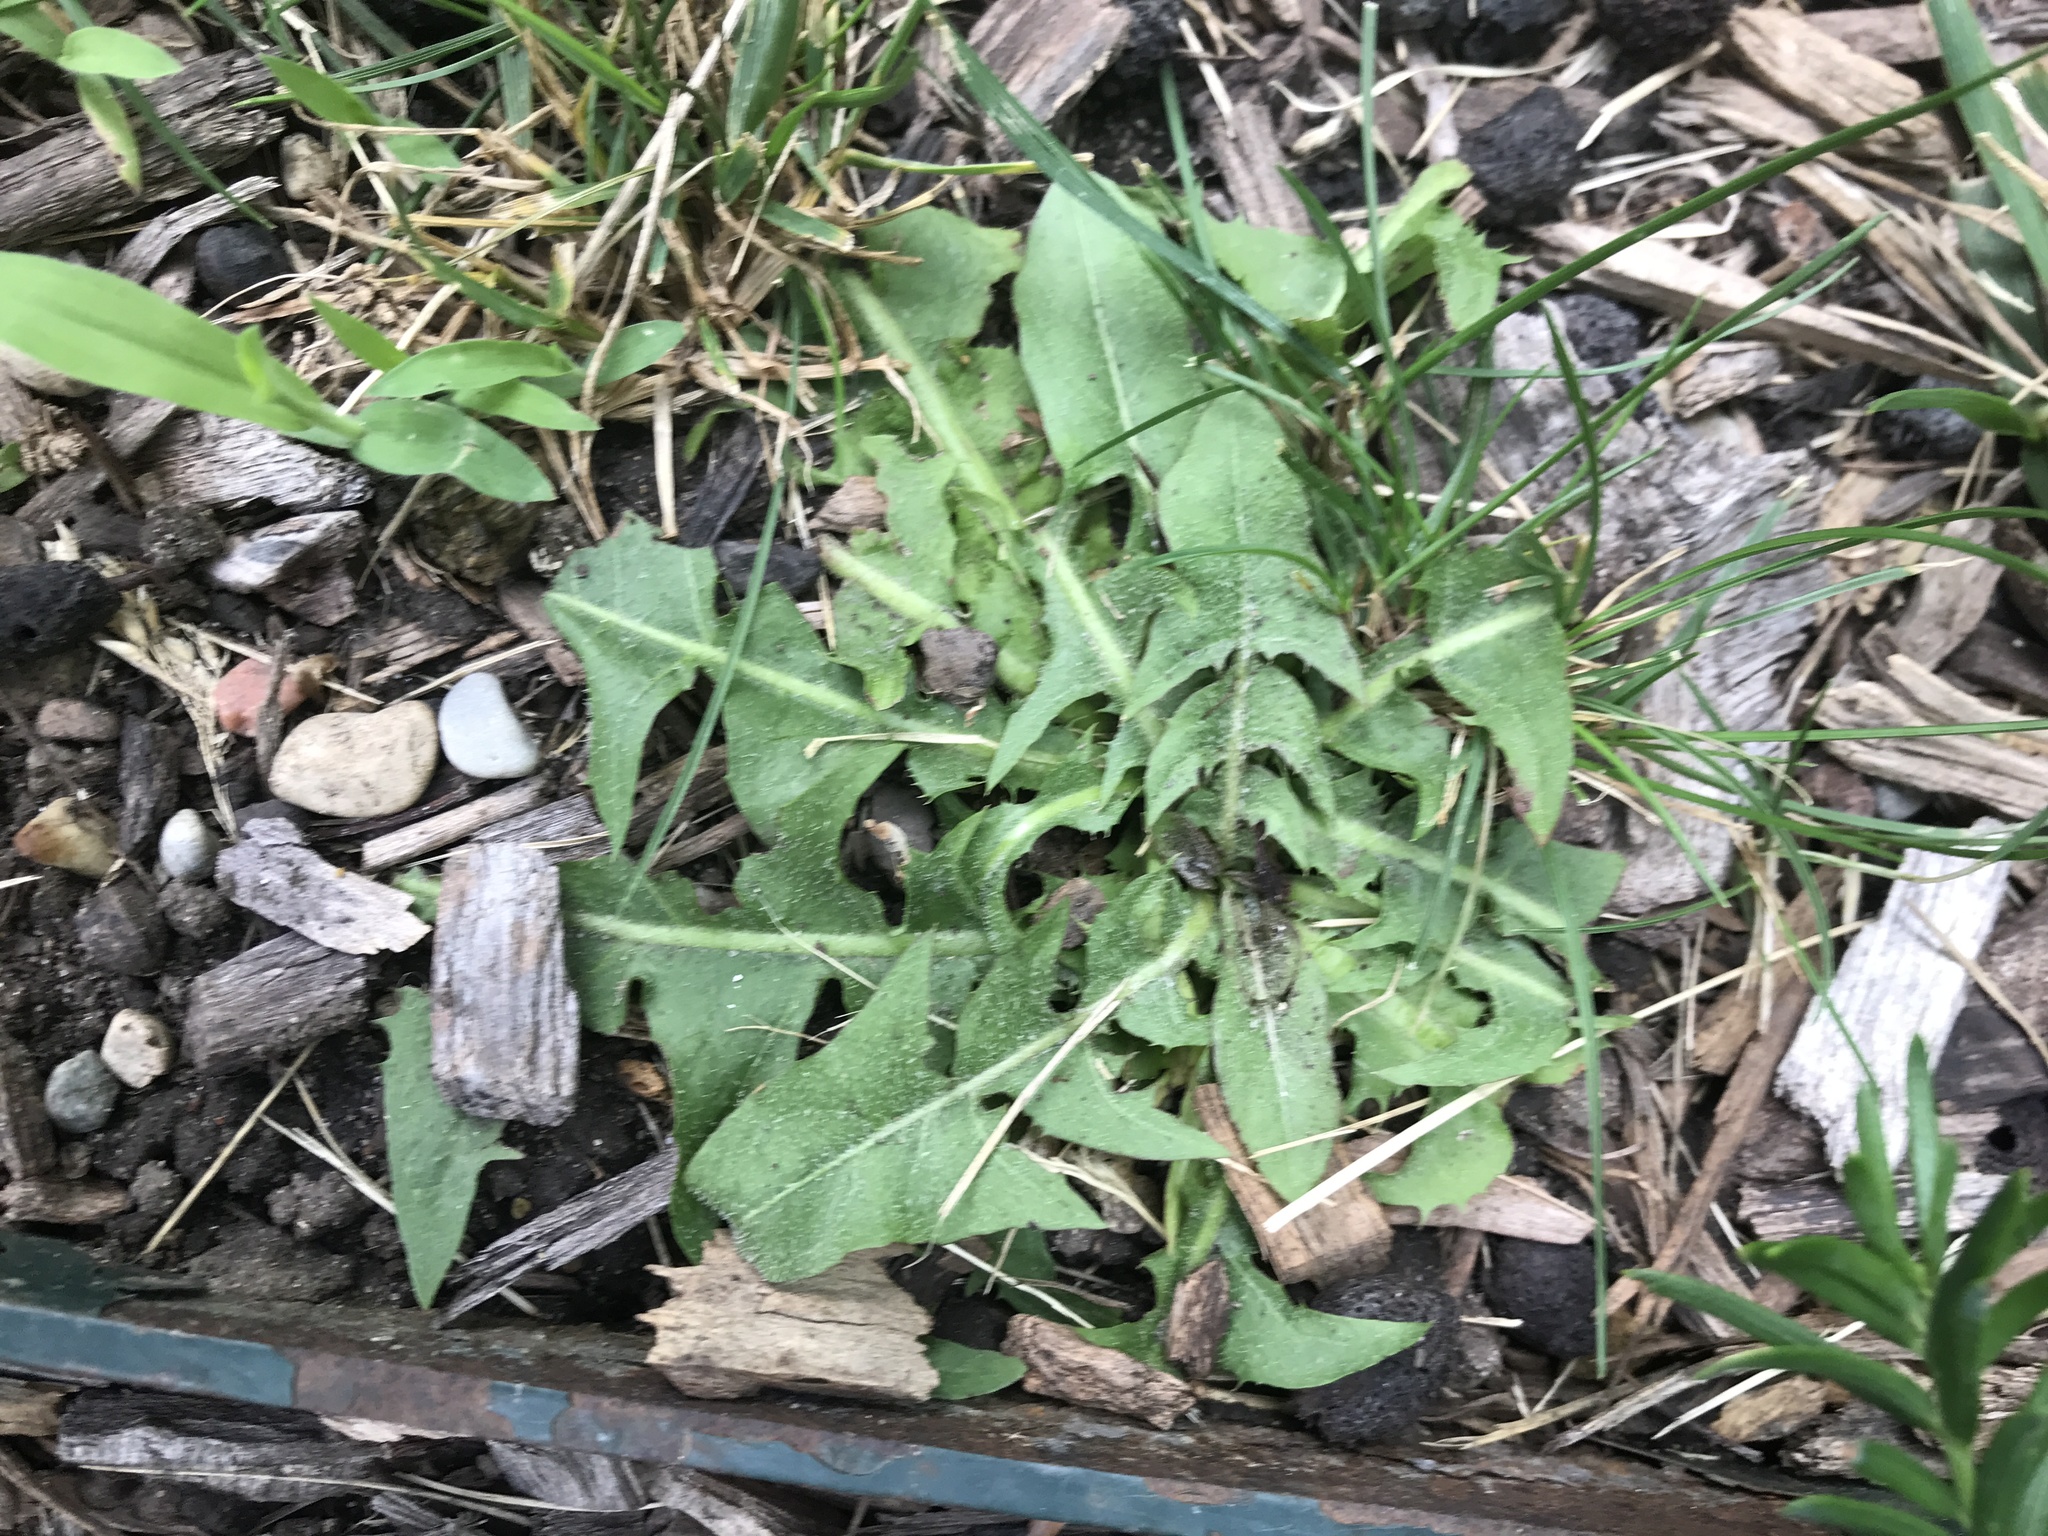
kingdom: Plantae
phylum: Tracheophyta
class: Magnoliopsida
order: Asterales
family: Asteraceae
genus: Taraxacum
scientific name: Taraxacum officinale
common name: Common dandelion
